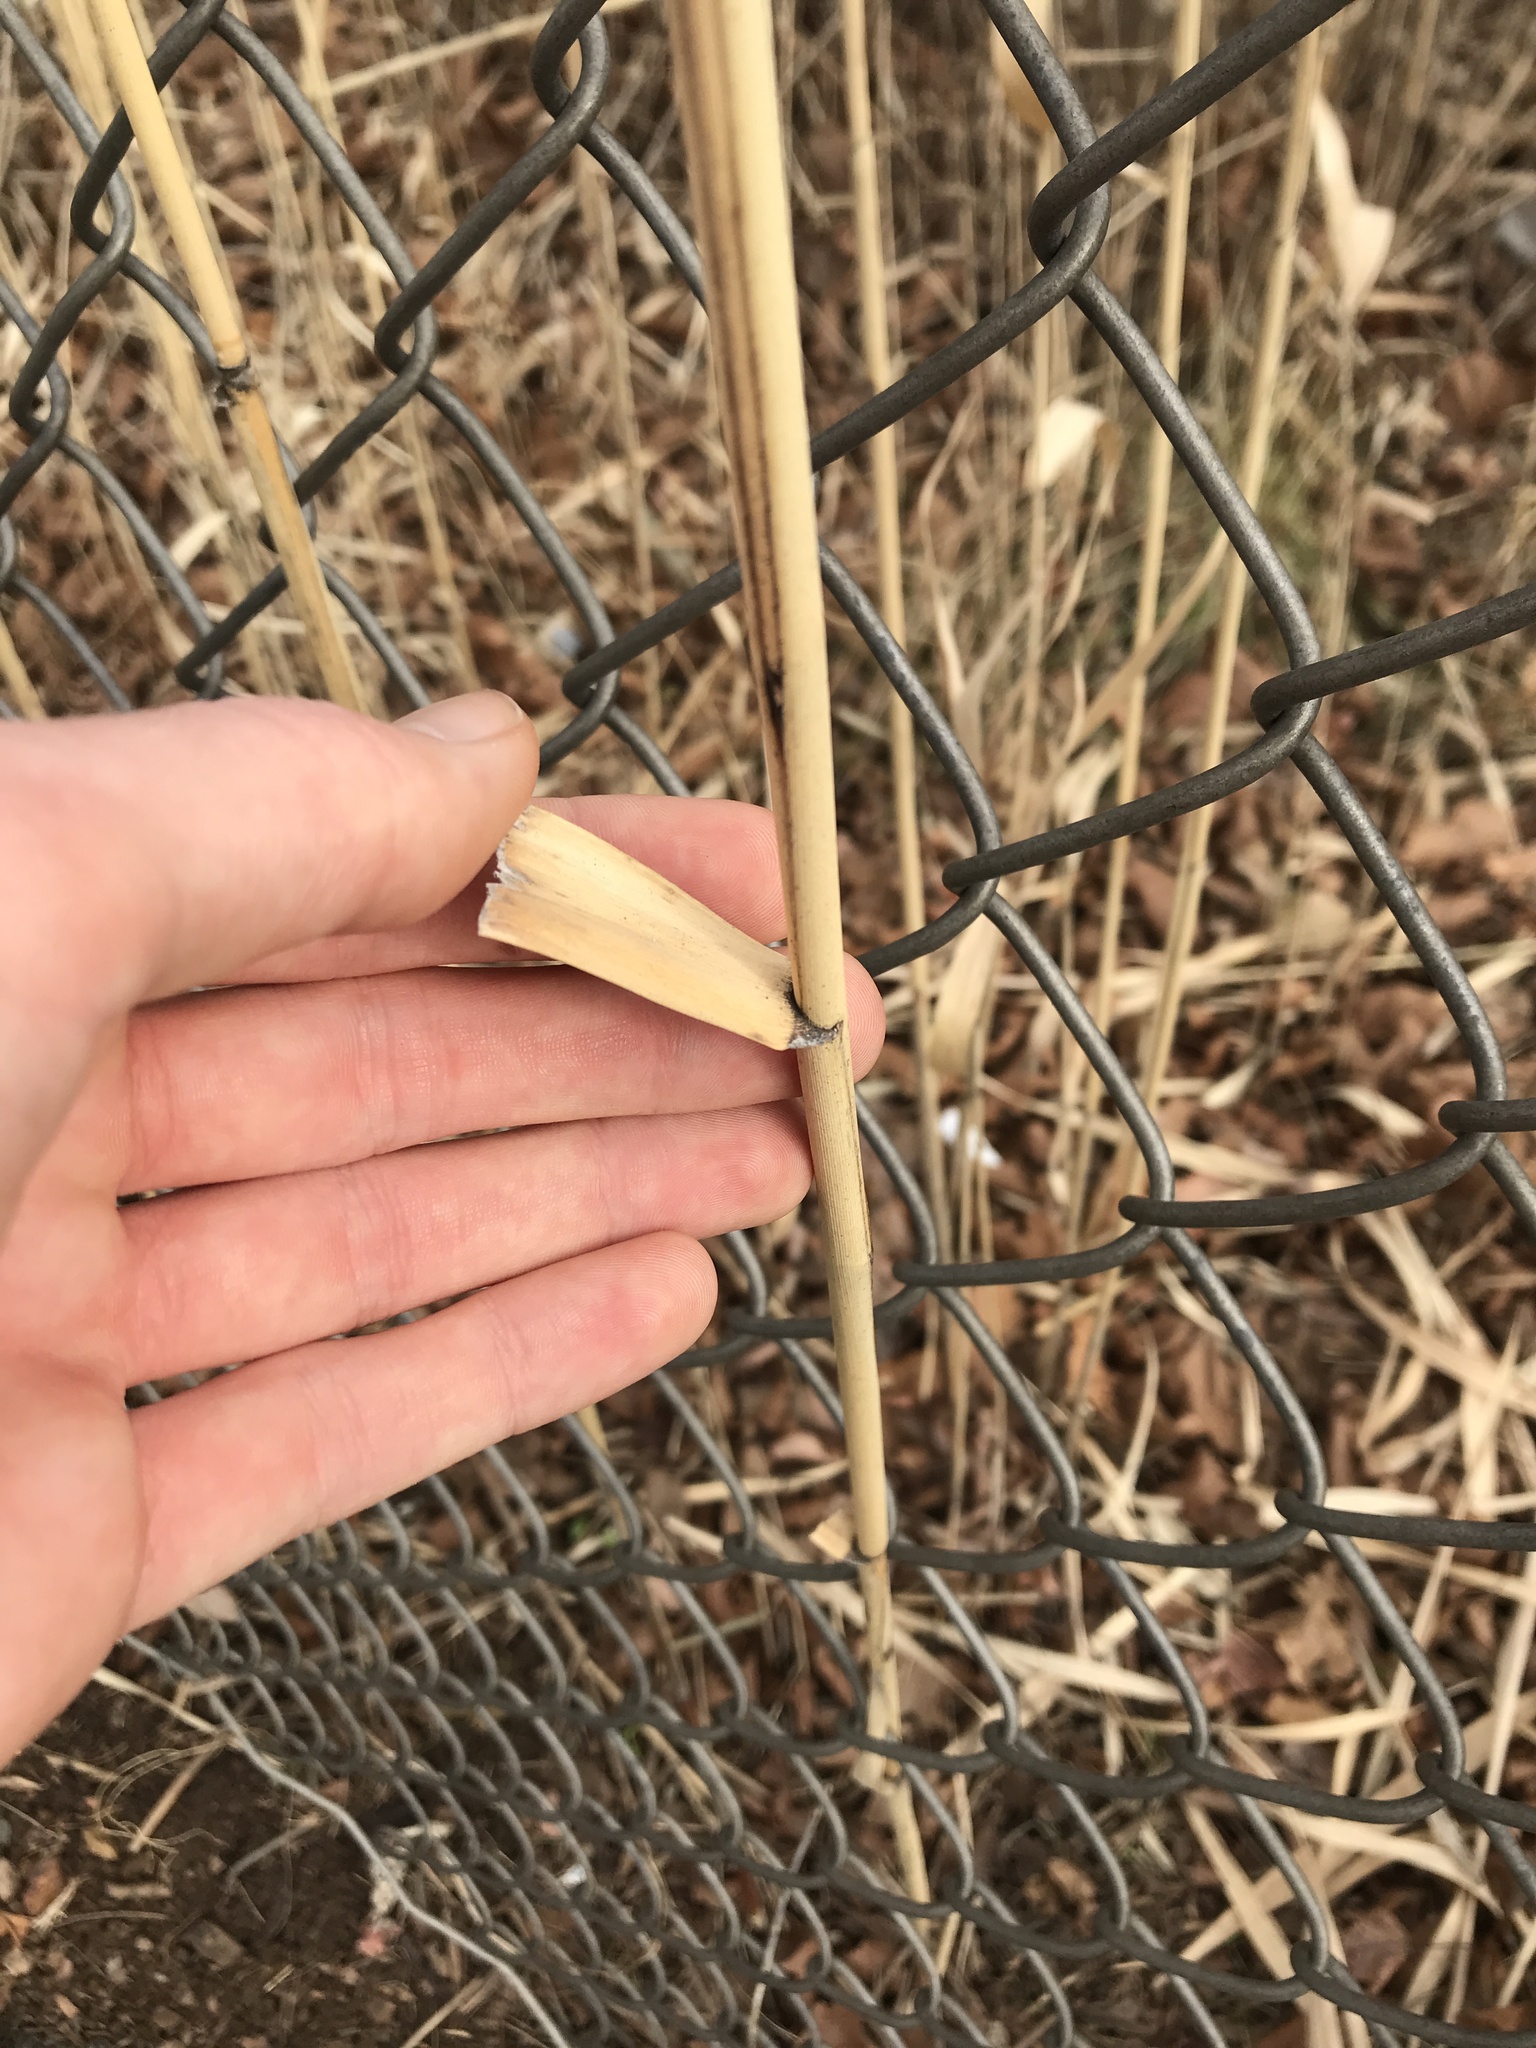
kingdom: Plantae
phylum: Tracheophyta
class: Liliopsida
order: Poales
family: Poaceae
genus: Phragmites
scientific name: Phragmites australis
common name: Common reed
